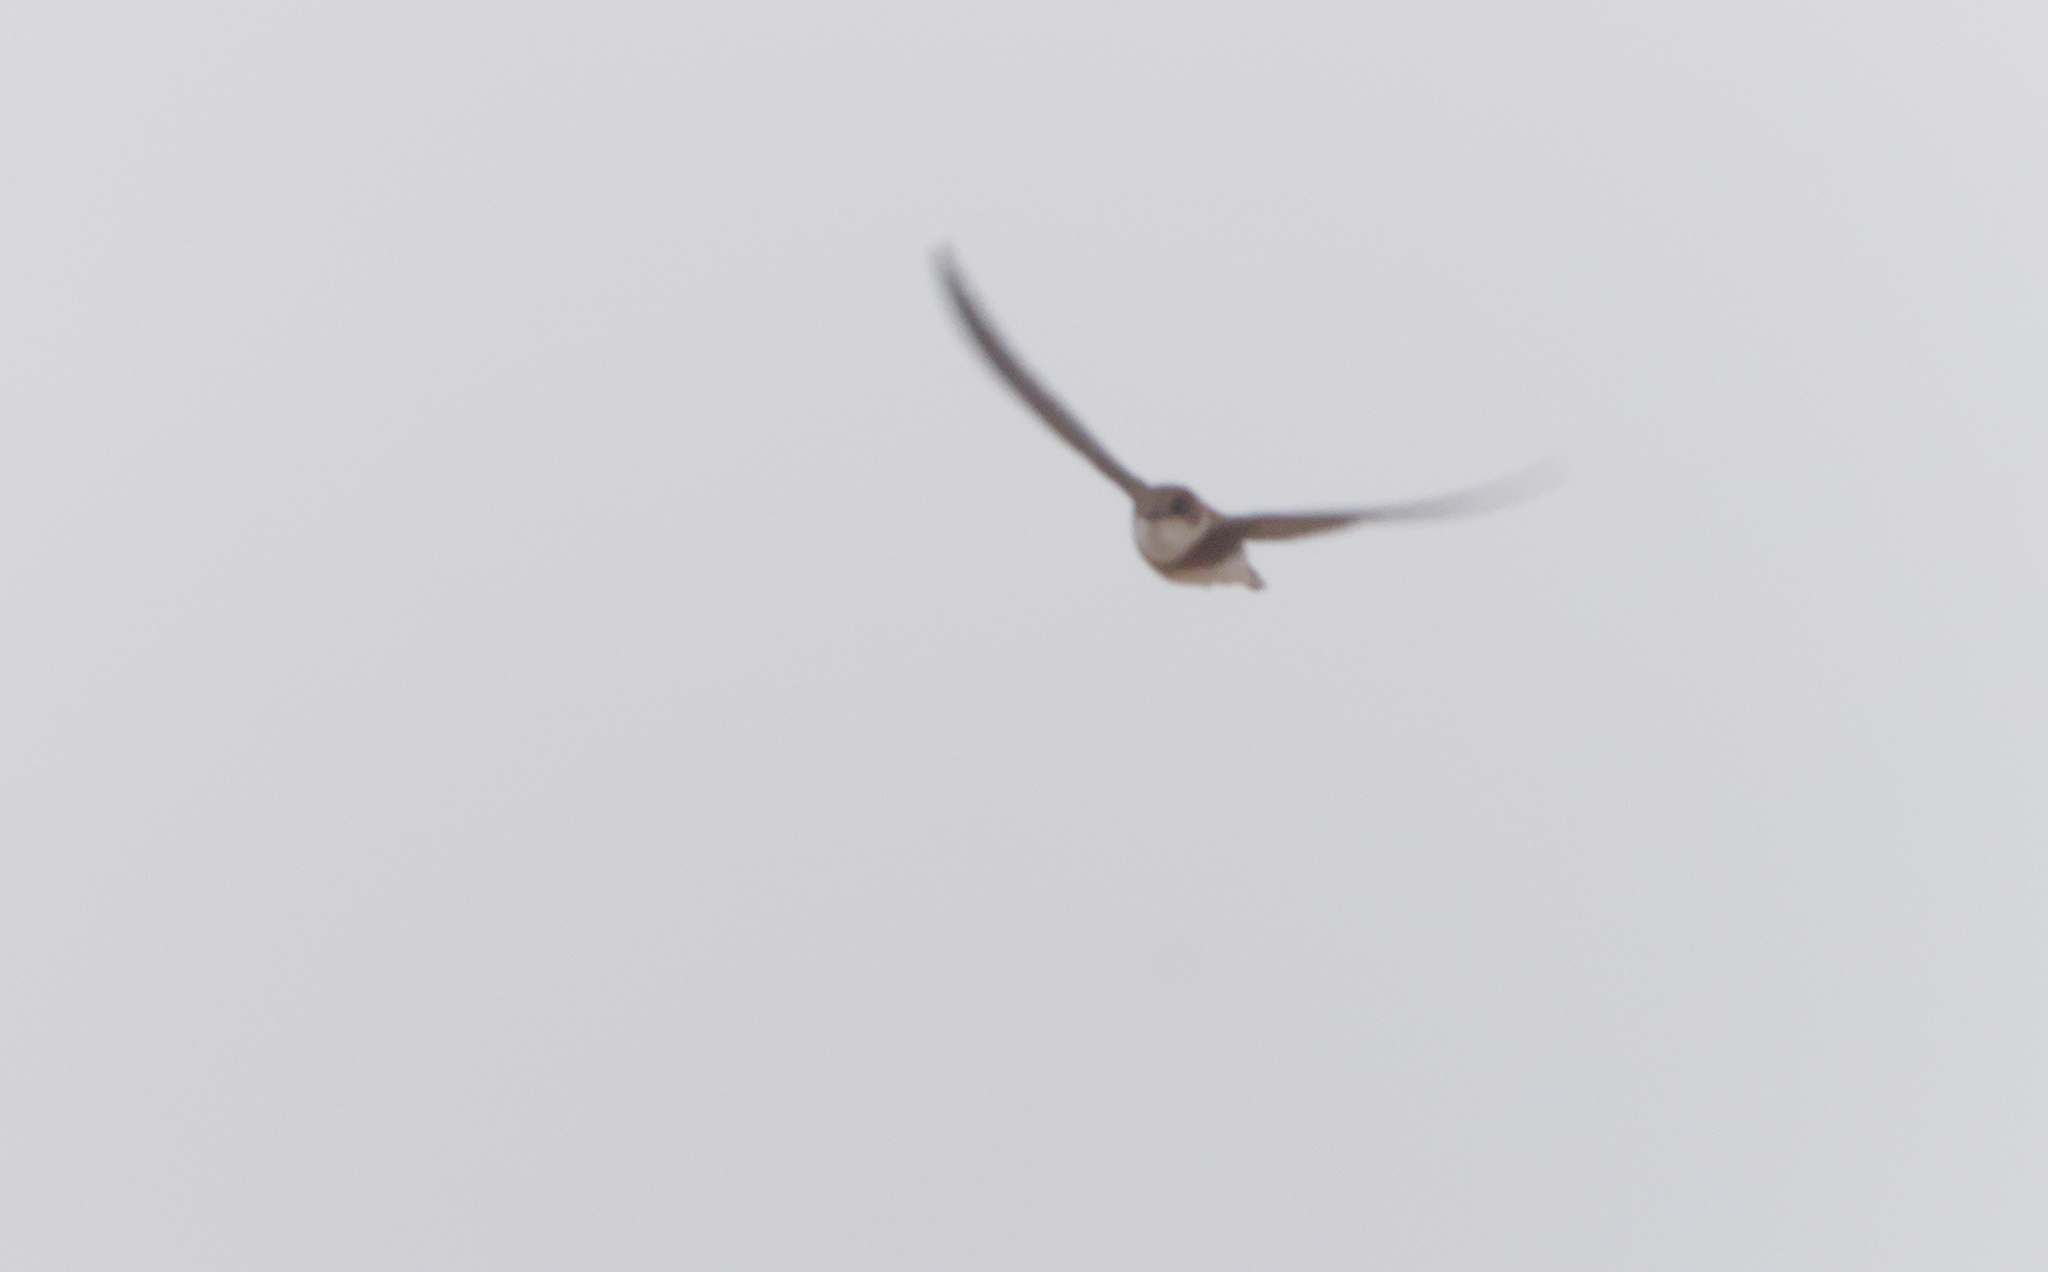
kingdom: Animalia
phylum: Chordata
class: Aves
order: Passeriformes
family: Hirundinidae
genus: Riparia
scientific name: Riparia riparia
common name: Sand martin
